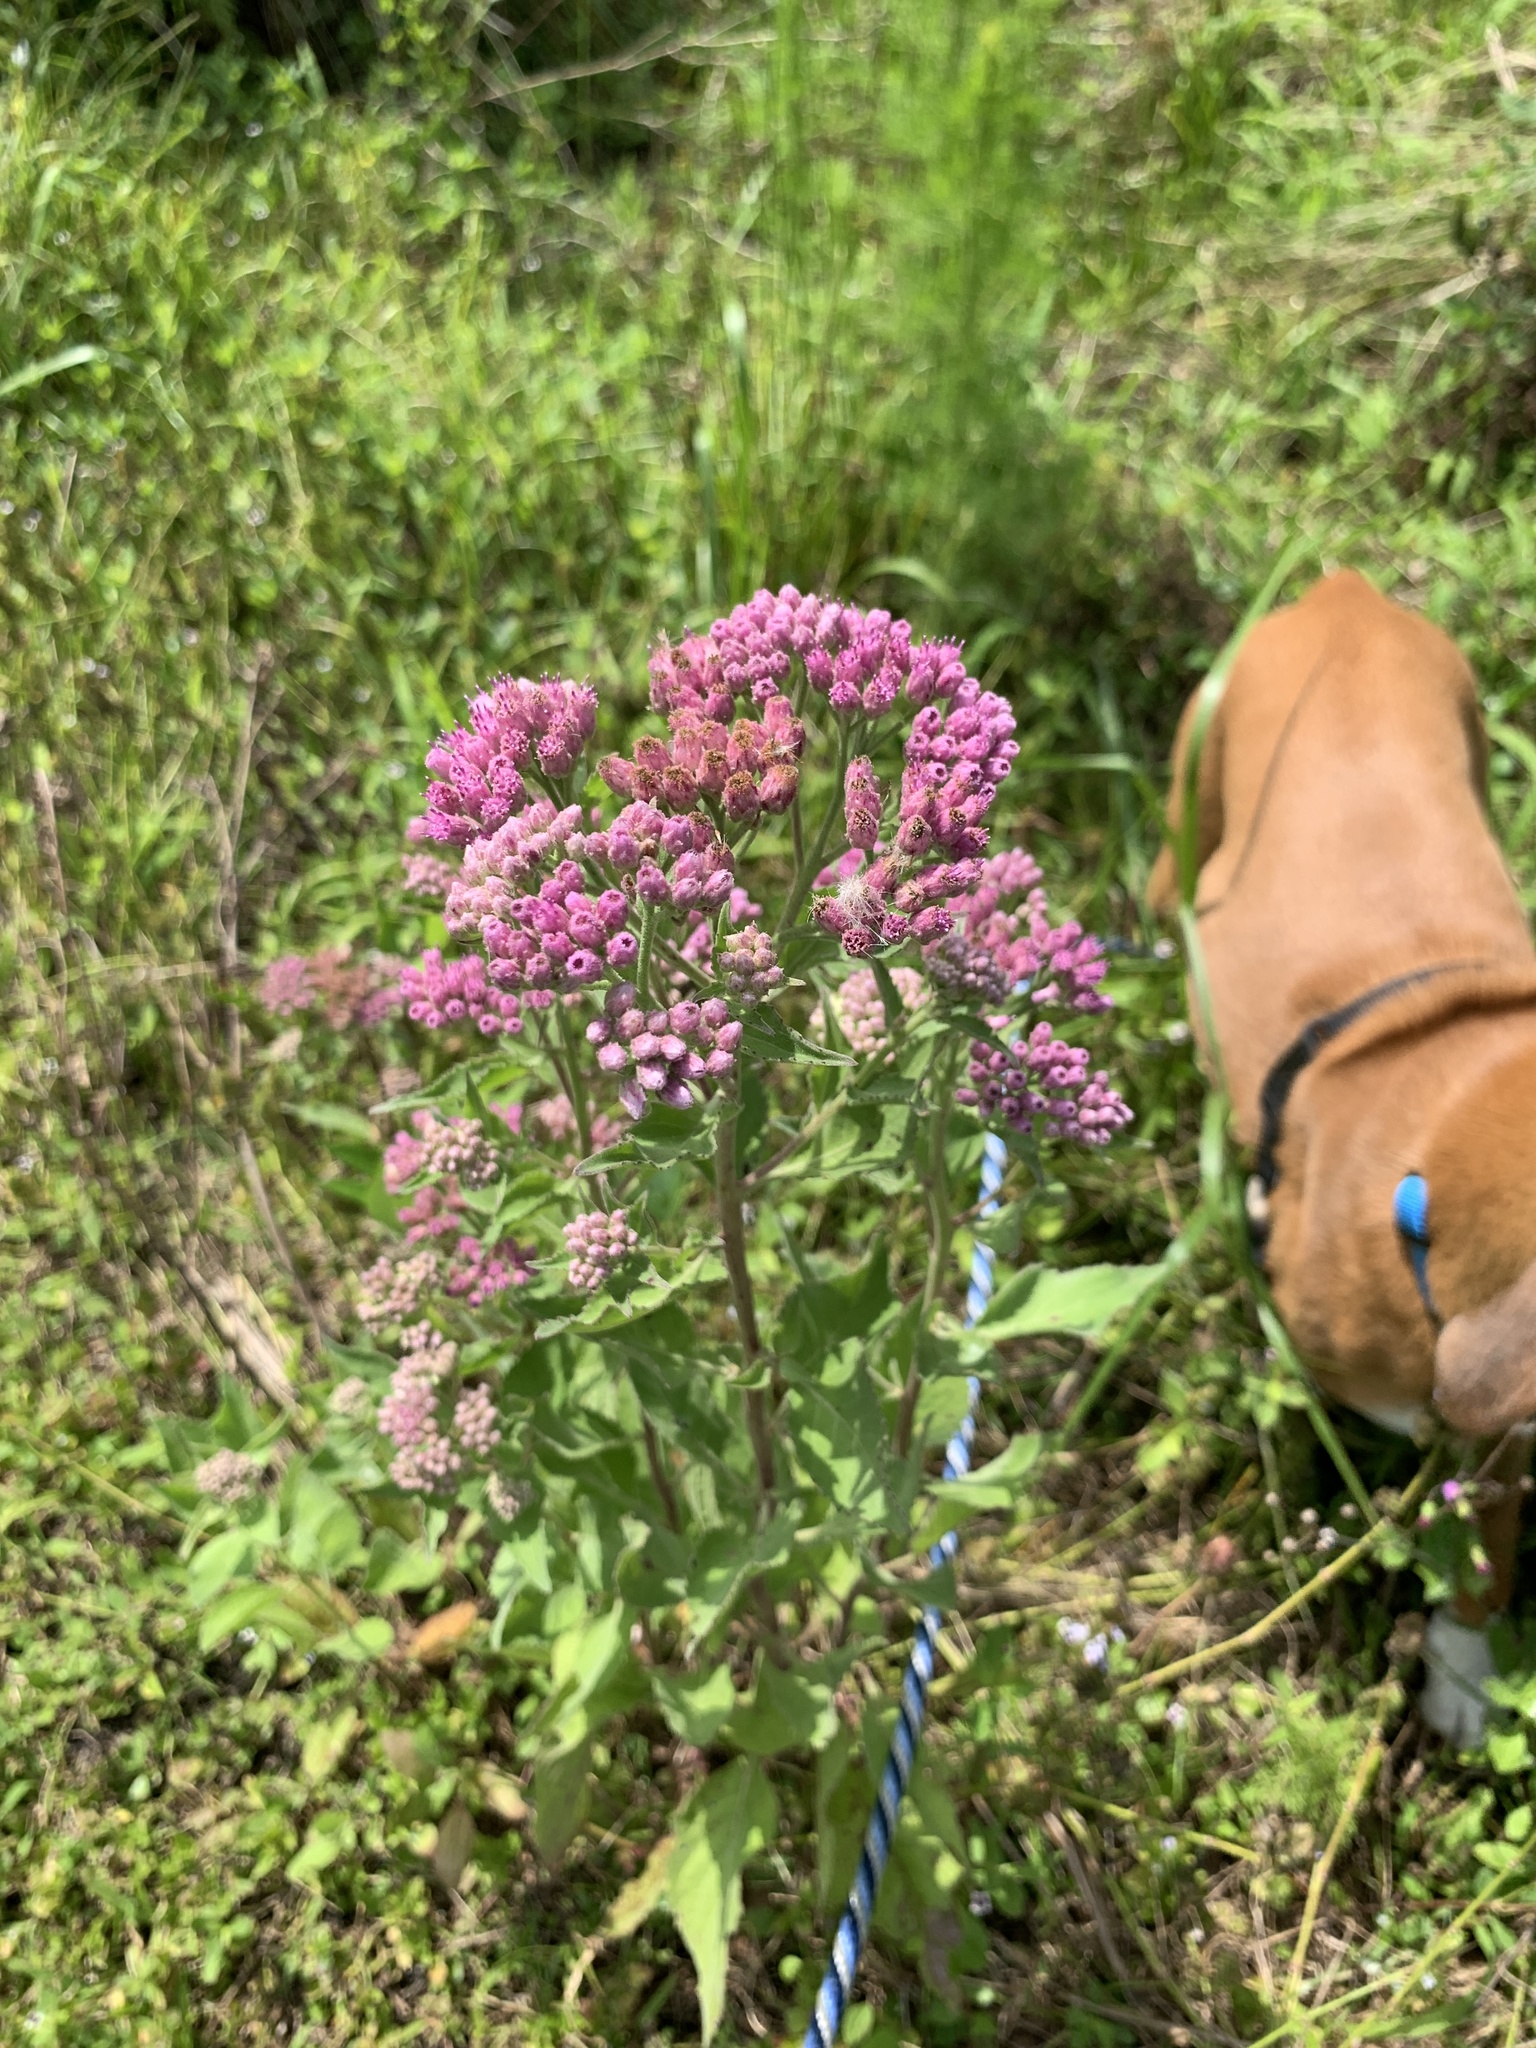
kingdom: Plantae
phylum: Tracheophyta
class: Magnoliopsida
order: Asterales
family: Asteraceae
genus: Pluchea
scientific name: Pluchea odorata
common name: Saltmarsh fleabane
